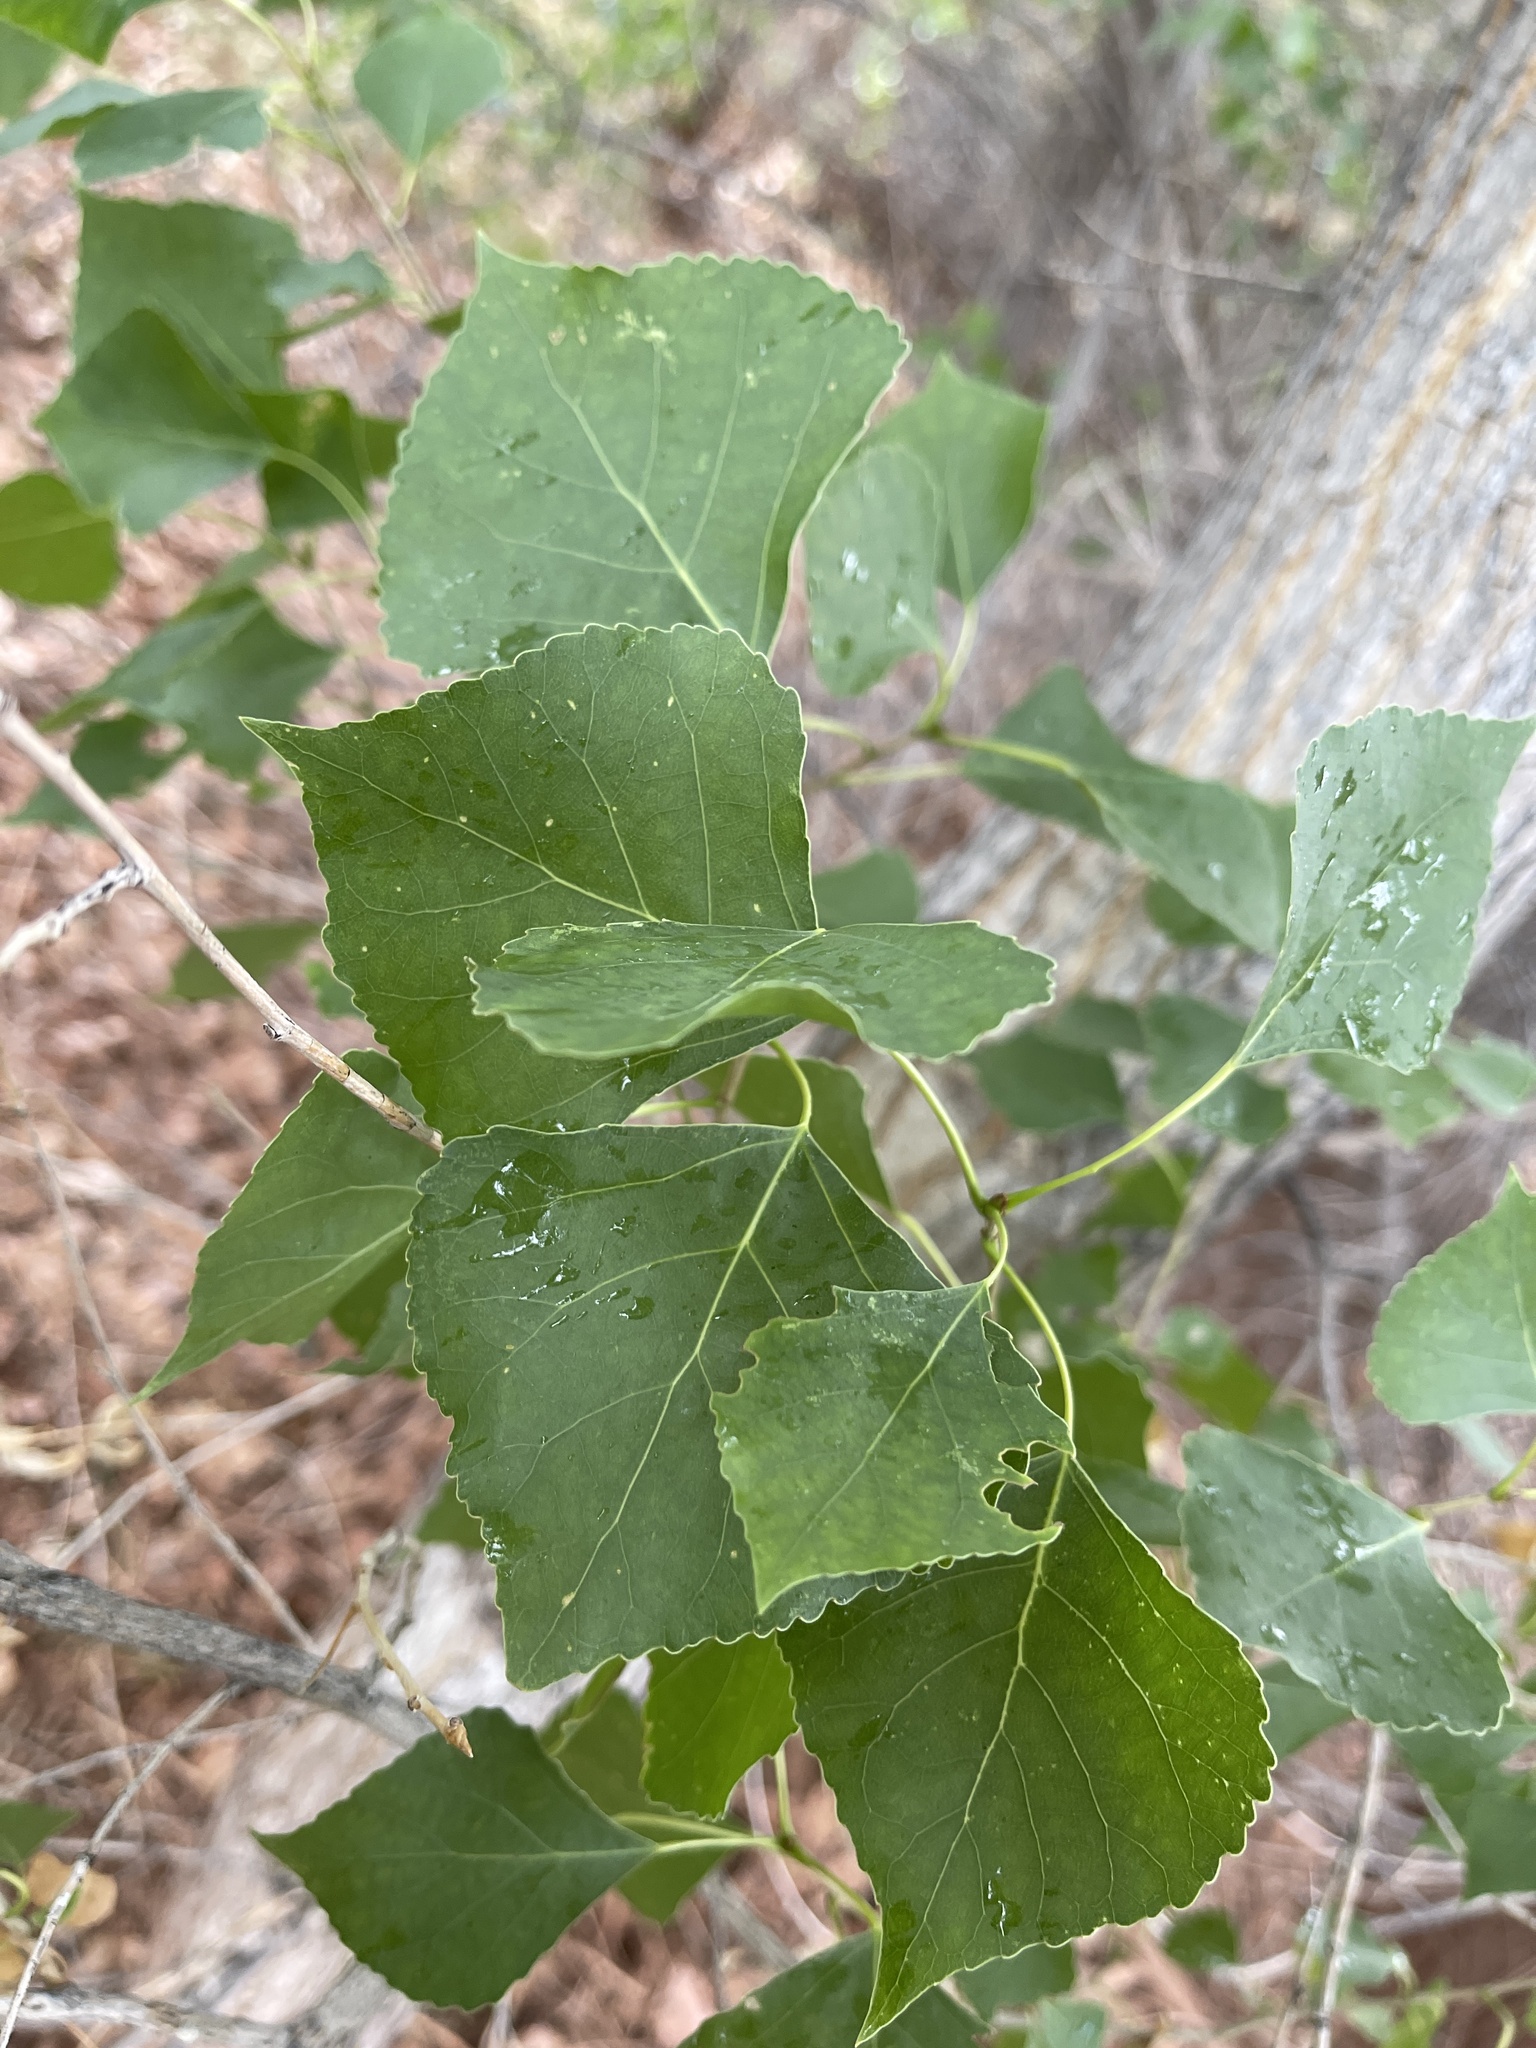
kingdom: Plantae
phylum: Tracheophyta
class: Magnoliopsida
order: Malpighiales
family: Salicaceae
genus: Populus
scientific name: Populus fremontii
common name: Fremont's cottonwood
